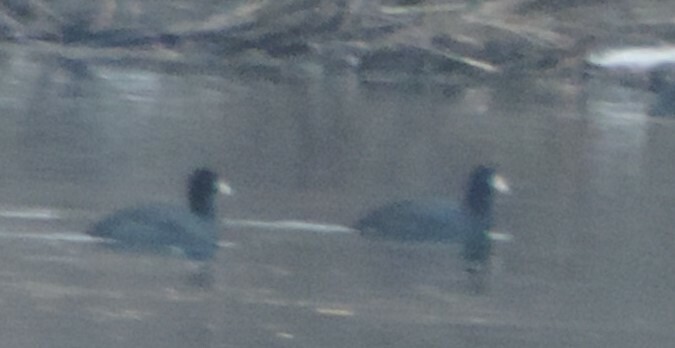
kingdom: Animalia
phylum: Chordata
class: Aves
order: Gruiformes
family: Rallidae
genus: Fulica
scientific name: Fulica americana
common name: American coot
